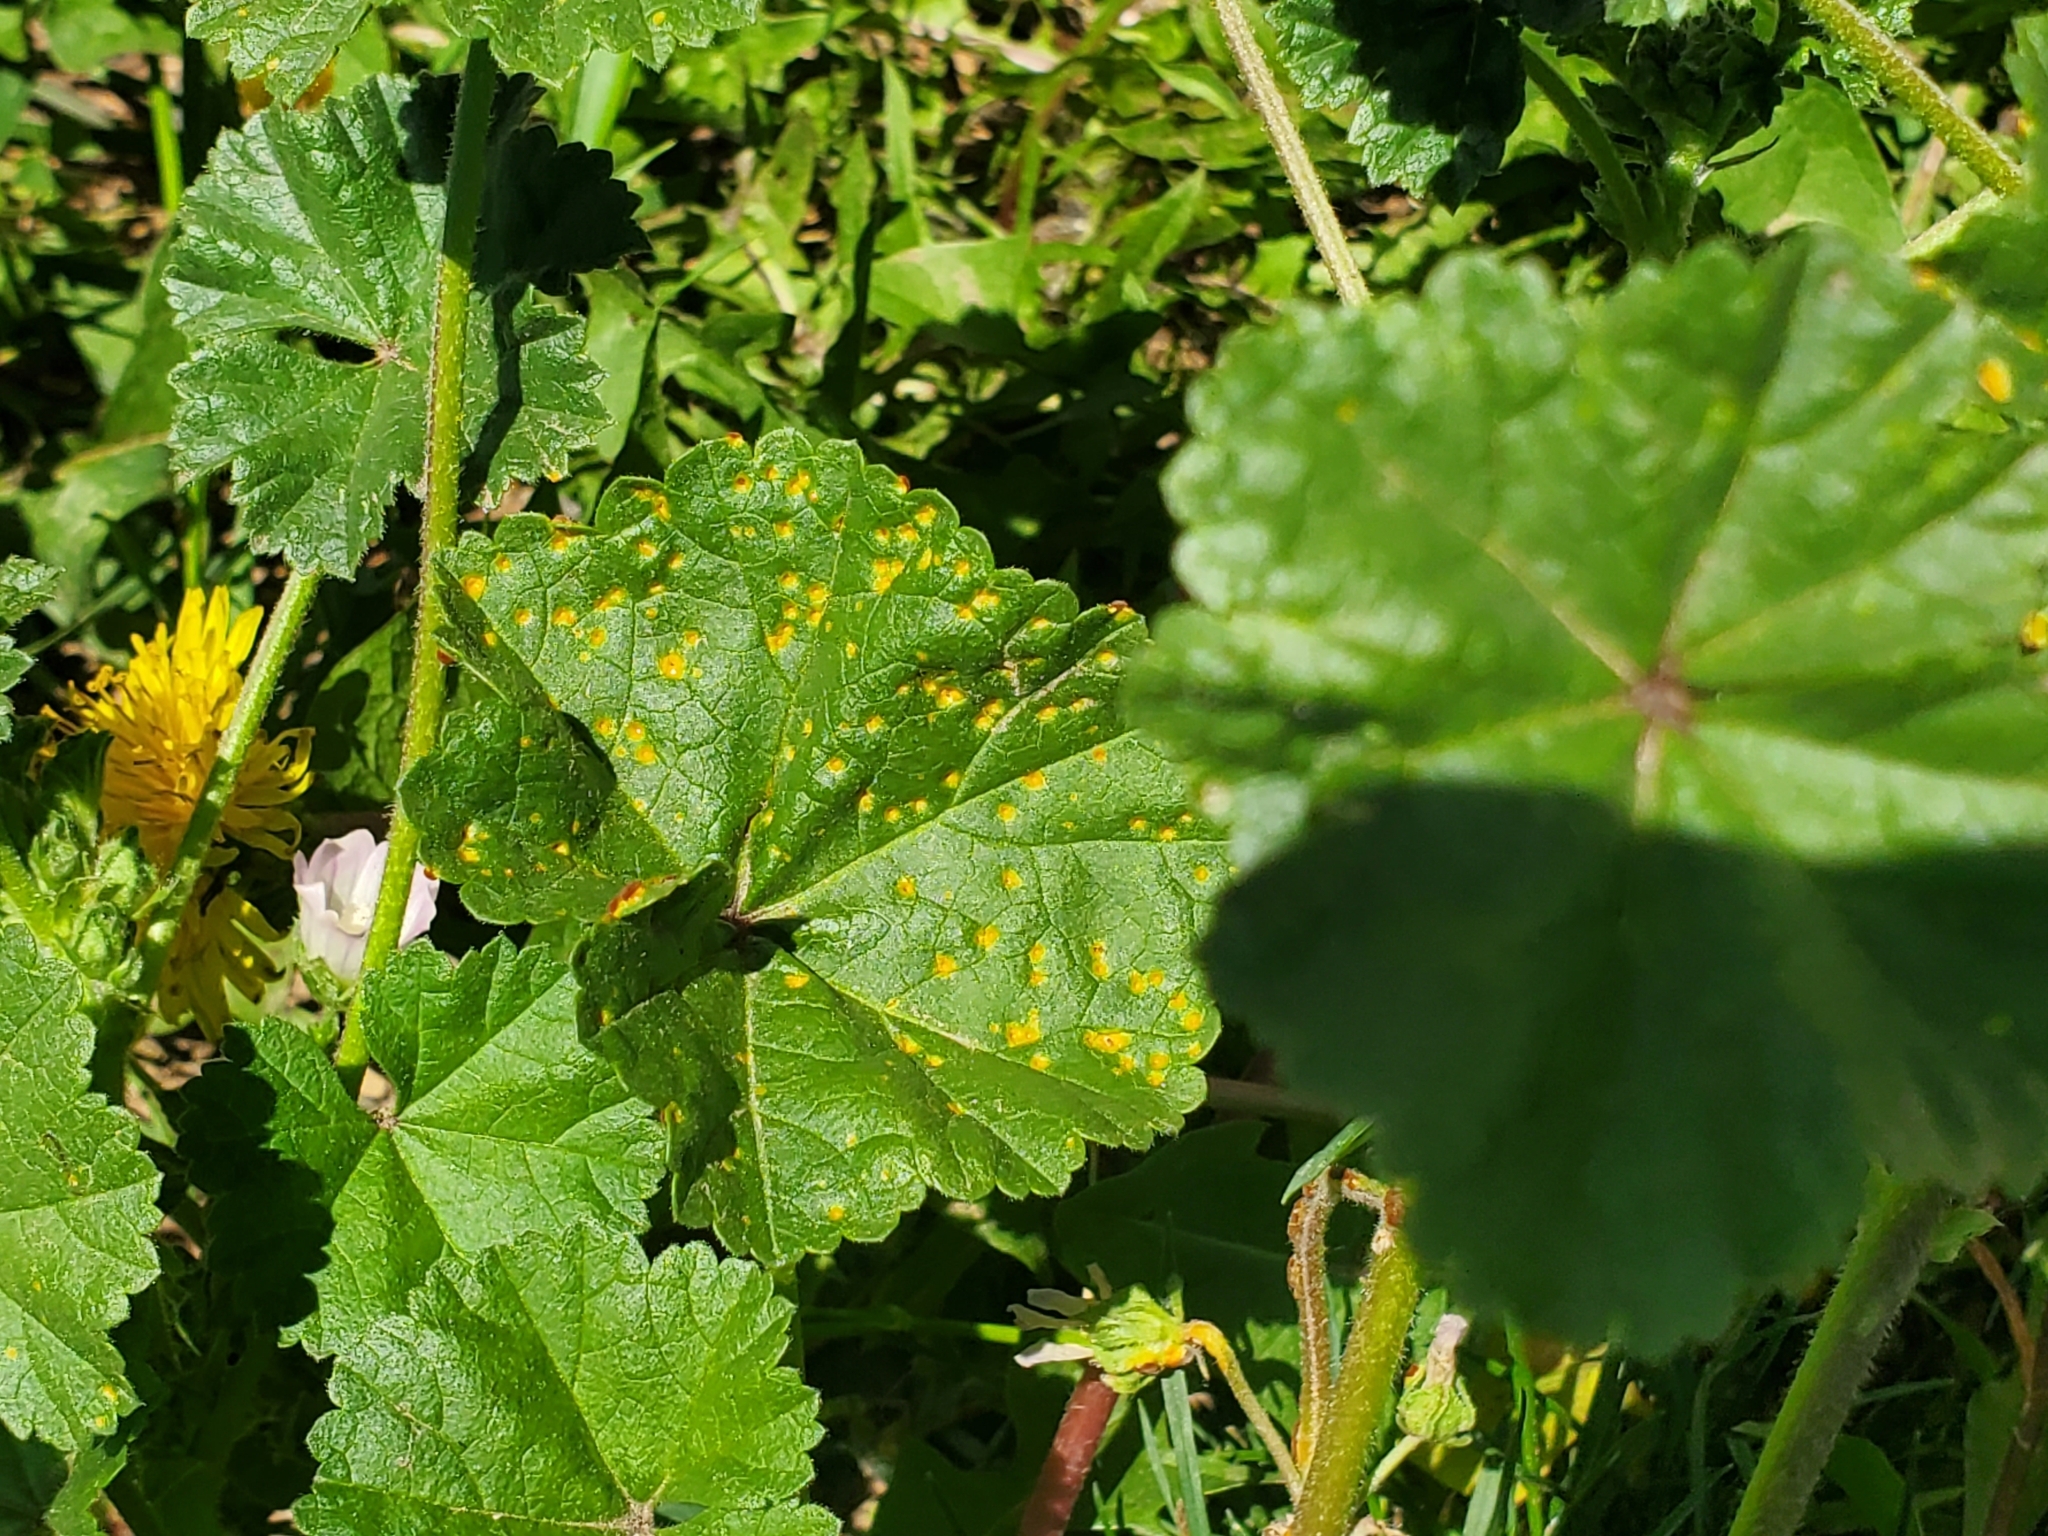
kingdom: Fungi
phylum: Basidiomycota
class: Pucciniomycetes
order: Pucciniales
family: Pucciniaceae
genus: Puccinia
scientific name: Puccinia malvacearum
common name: Hollyhock rust
